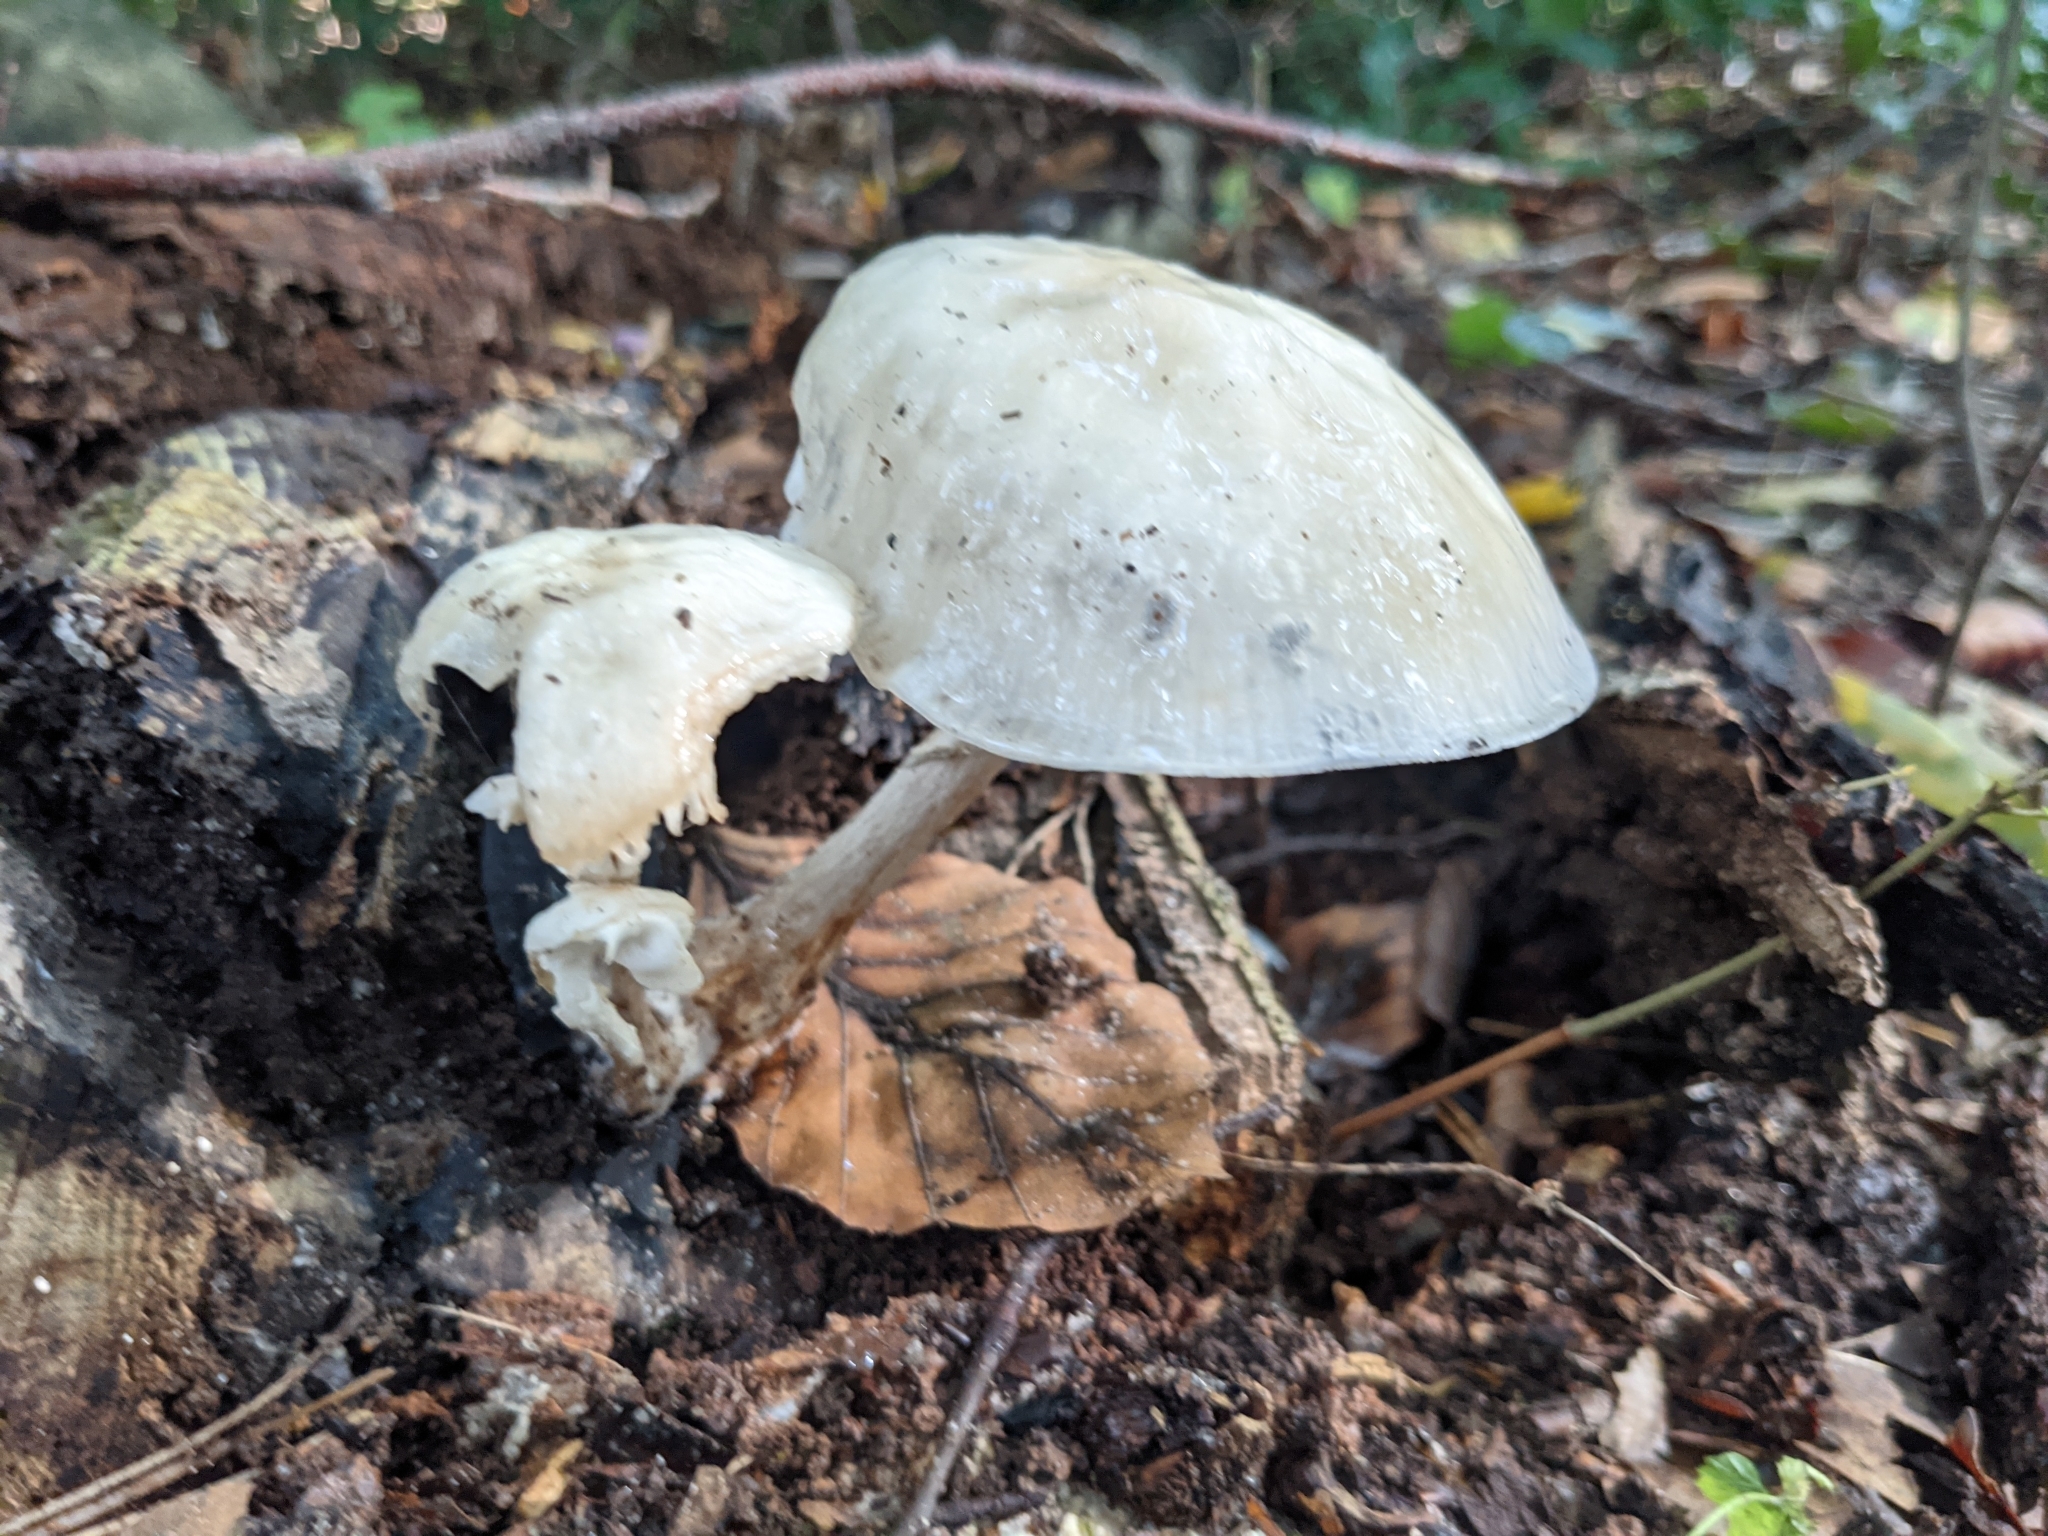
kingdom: Fungi
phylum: Basidiomycota
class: Agaricomycetes
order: Agaricales
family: Physalacriaceae
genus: Mucidula
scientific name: Mucidula mucida
